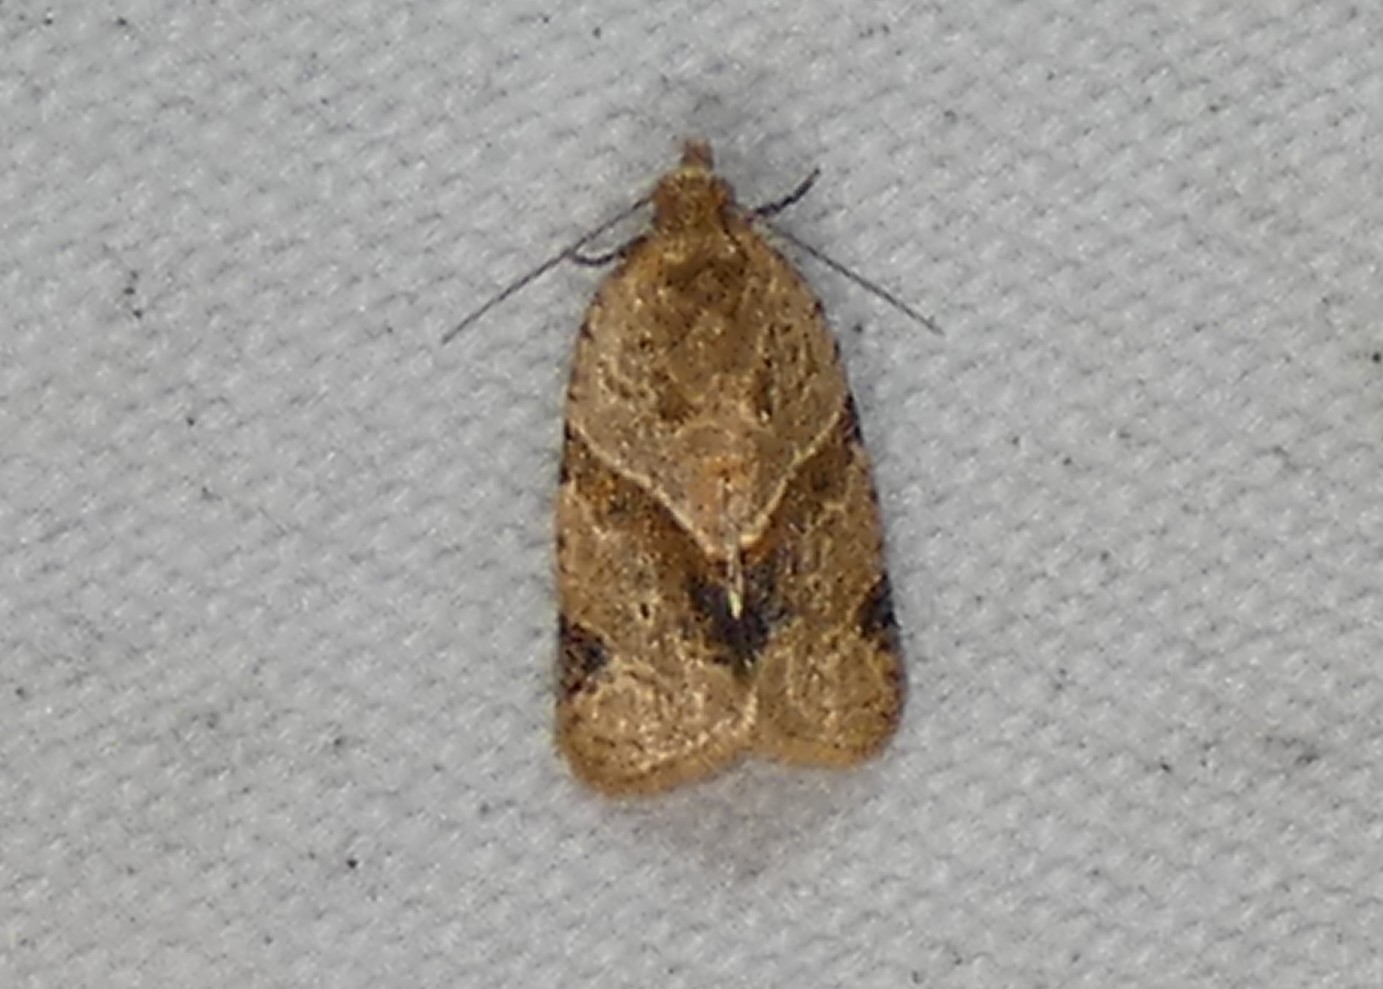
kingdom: Animalia
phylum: Arthropoda
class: Insecta
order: Lepidoptera
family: Tortricidae
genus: Clepsis
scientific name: Clepsis peritana
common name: Garden tortrix
